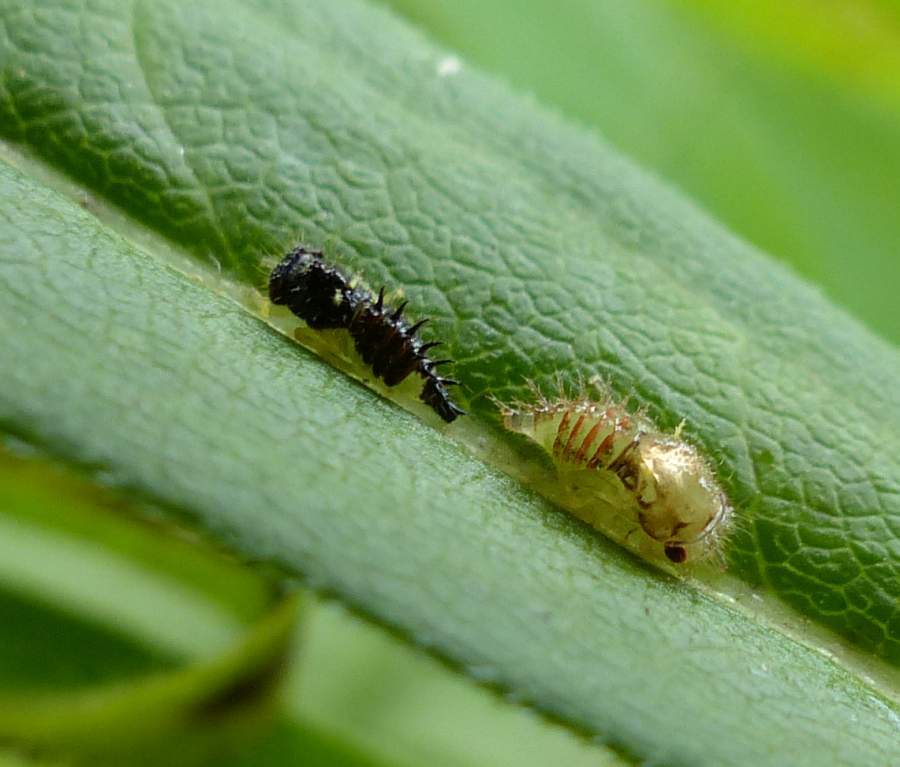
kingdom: Animalia
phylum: Arthropoda
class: Insecta
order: Hemiptera
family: Membracidae
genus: Publilia
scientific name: Publilia concava
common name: Aster treehopper
